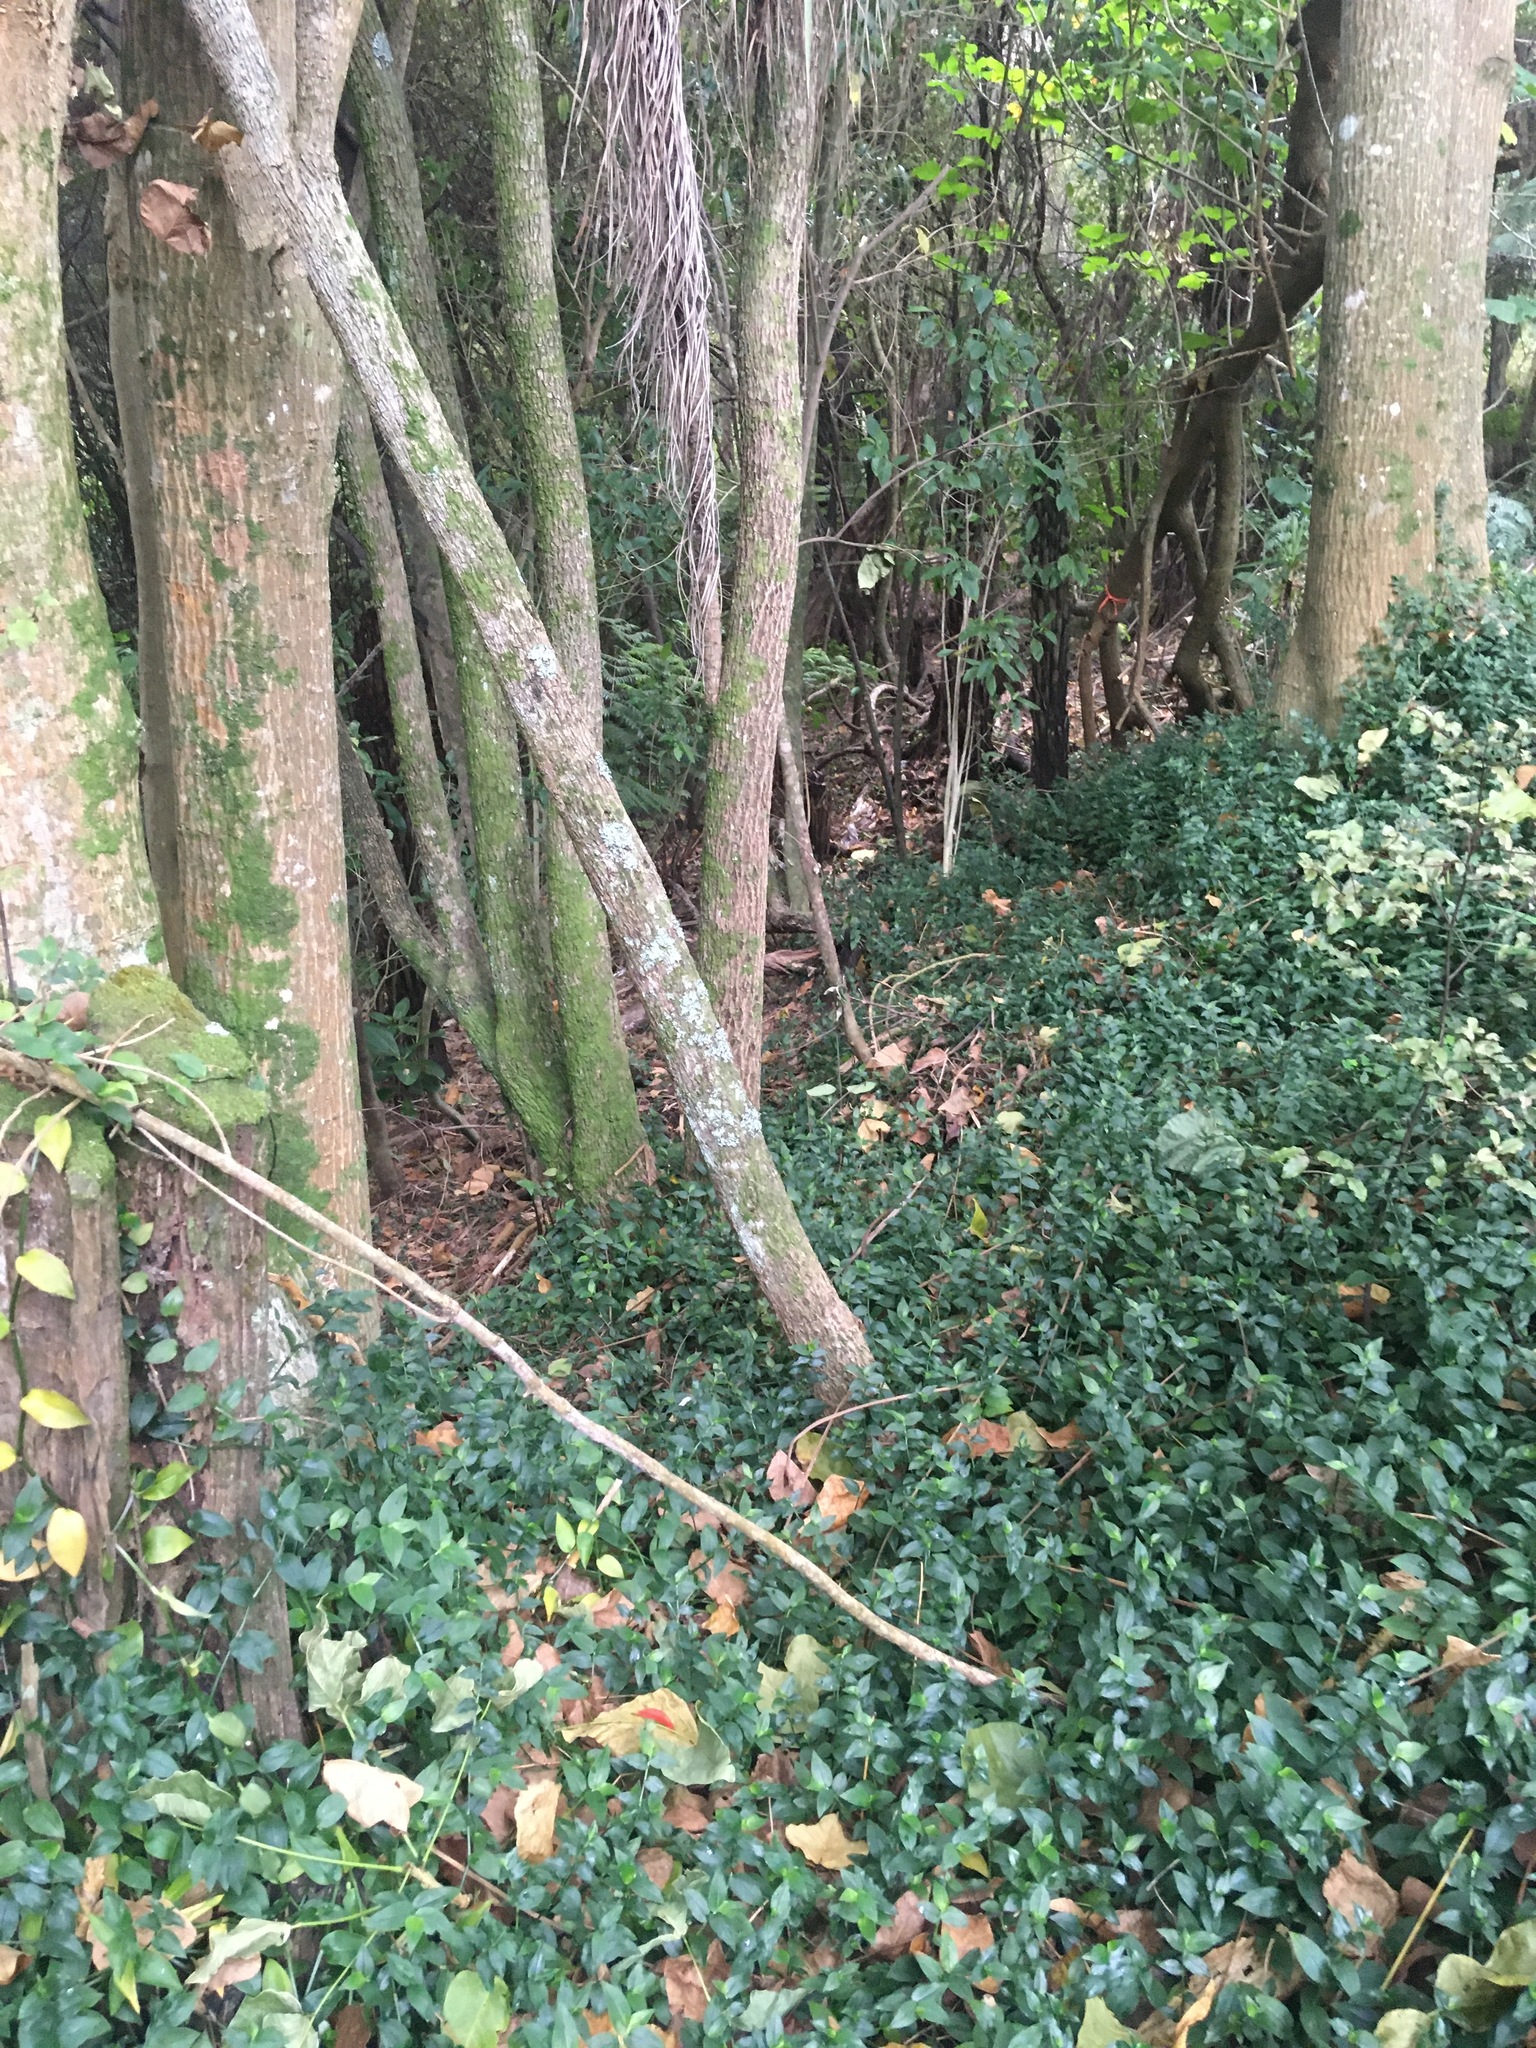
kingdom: Plantae
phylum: Tracheophyta
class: Liliopsida
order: Commelinales
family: Commelinaceae
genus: Tradescantia
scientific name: Tradescantia fluminensis
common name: Wandering-jew
